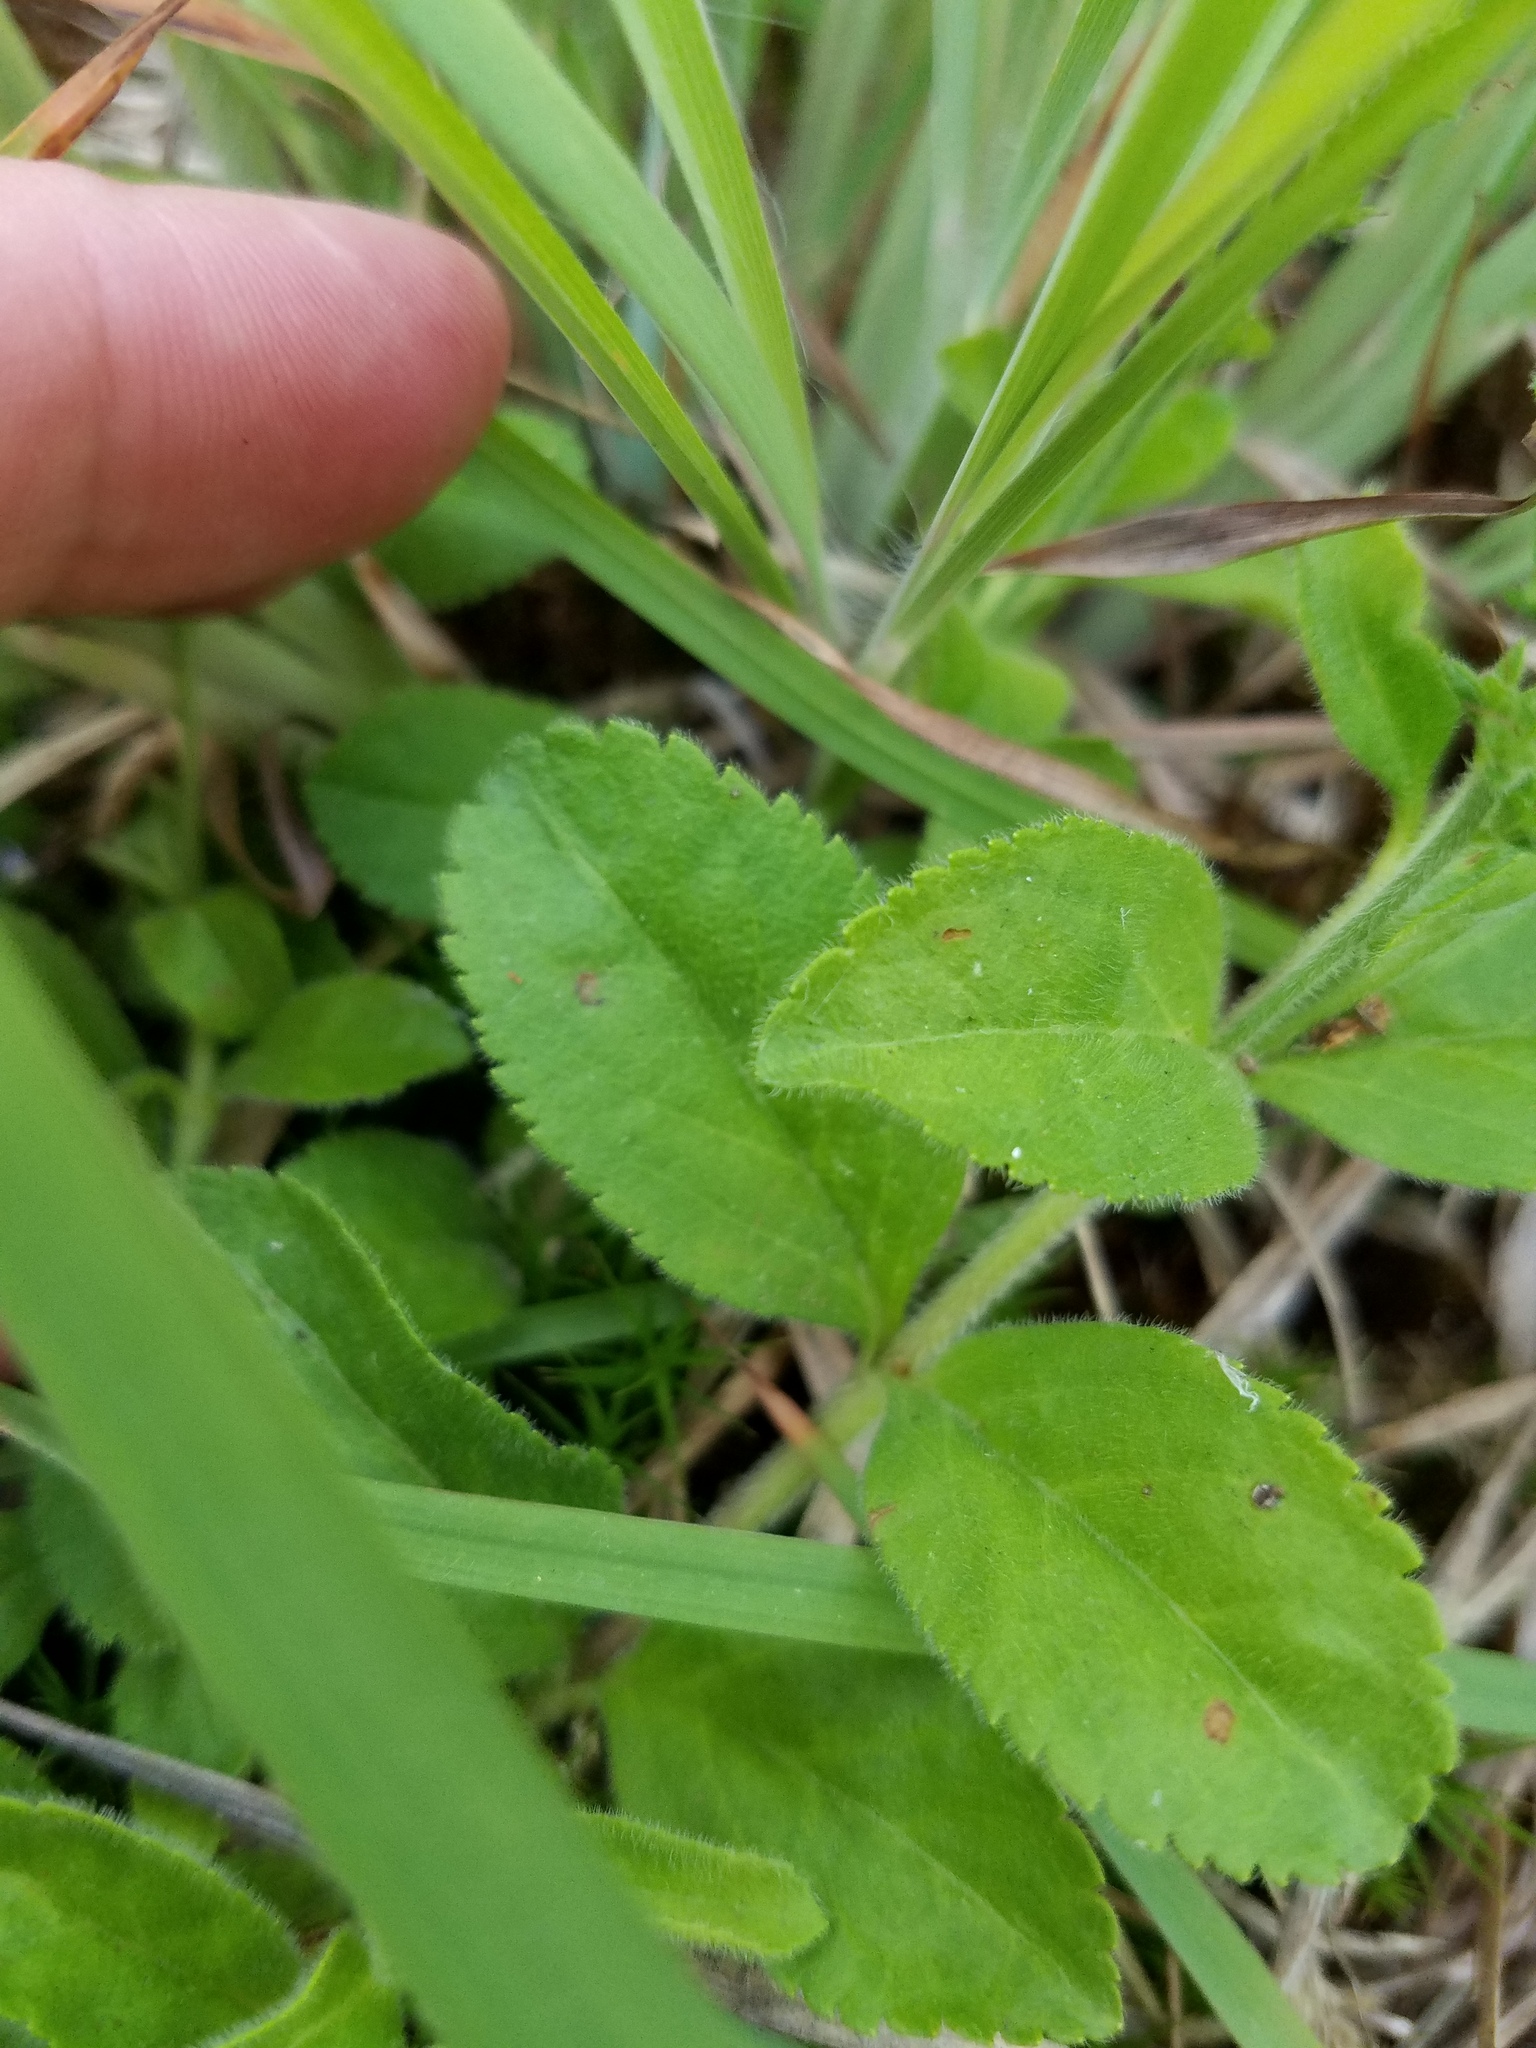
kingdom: Plantae
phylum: Tracheophyta
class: Magnoliopsida
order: Lamiales
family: Plantaginaceae
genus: Veronica
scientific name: Veronica officinalis
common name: Common speedwell
